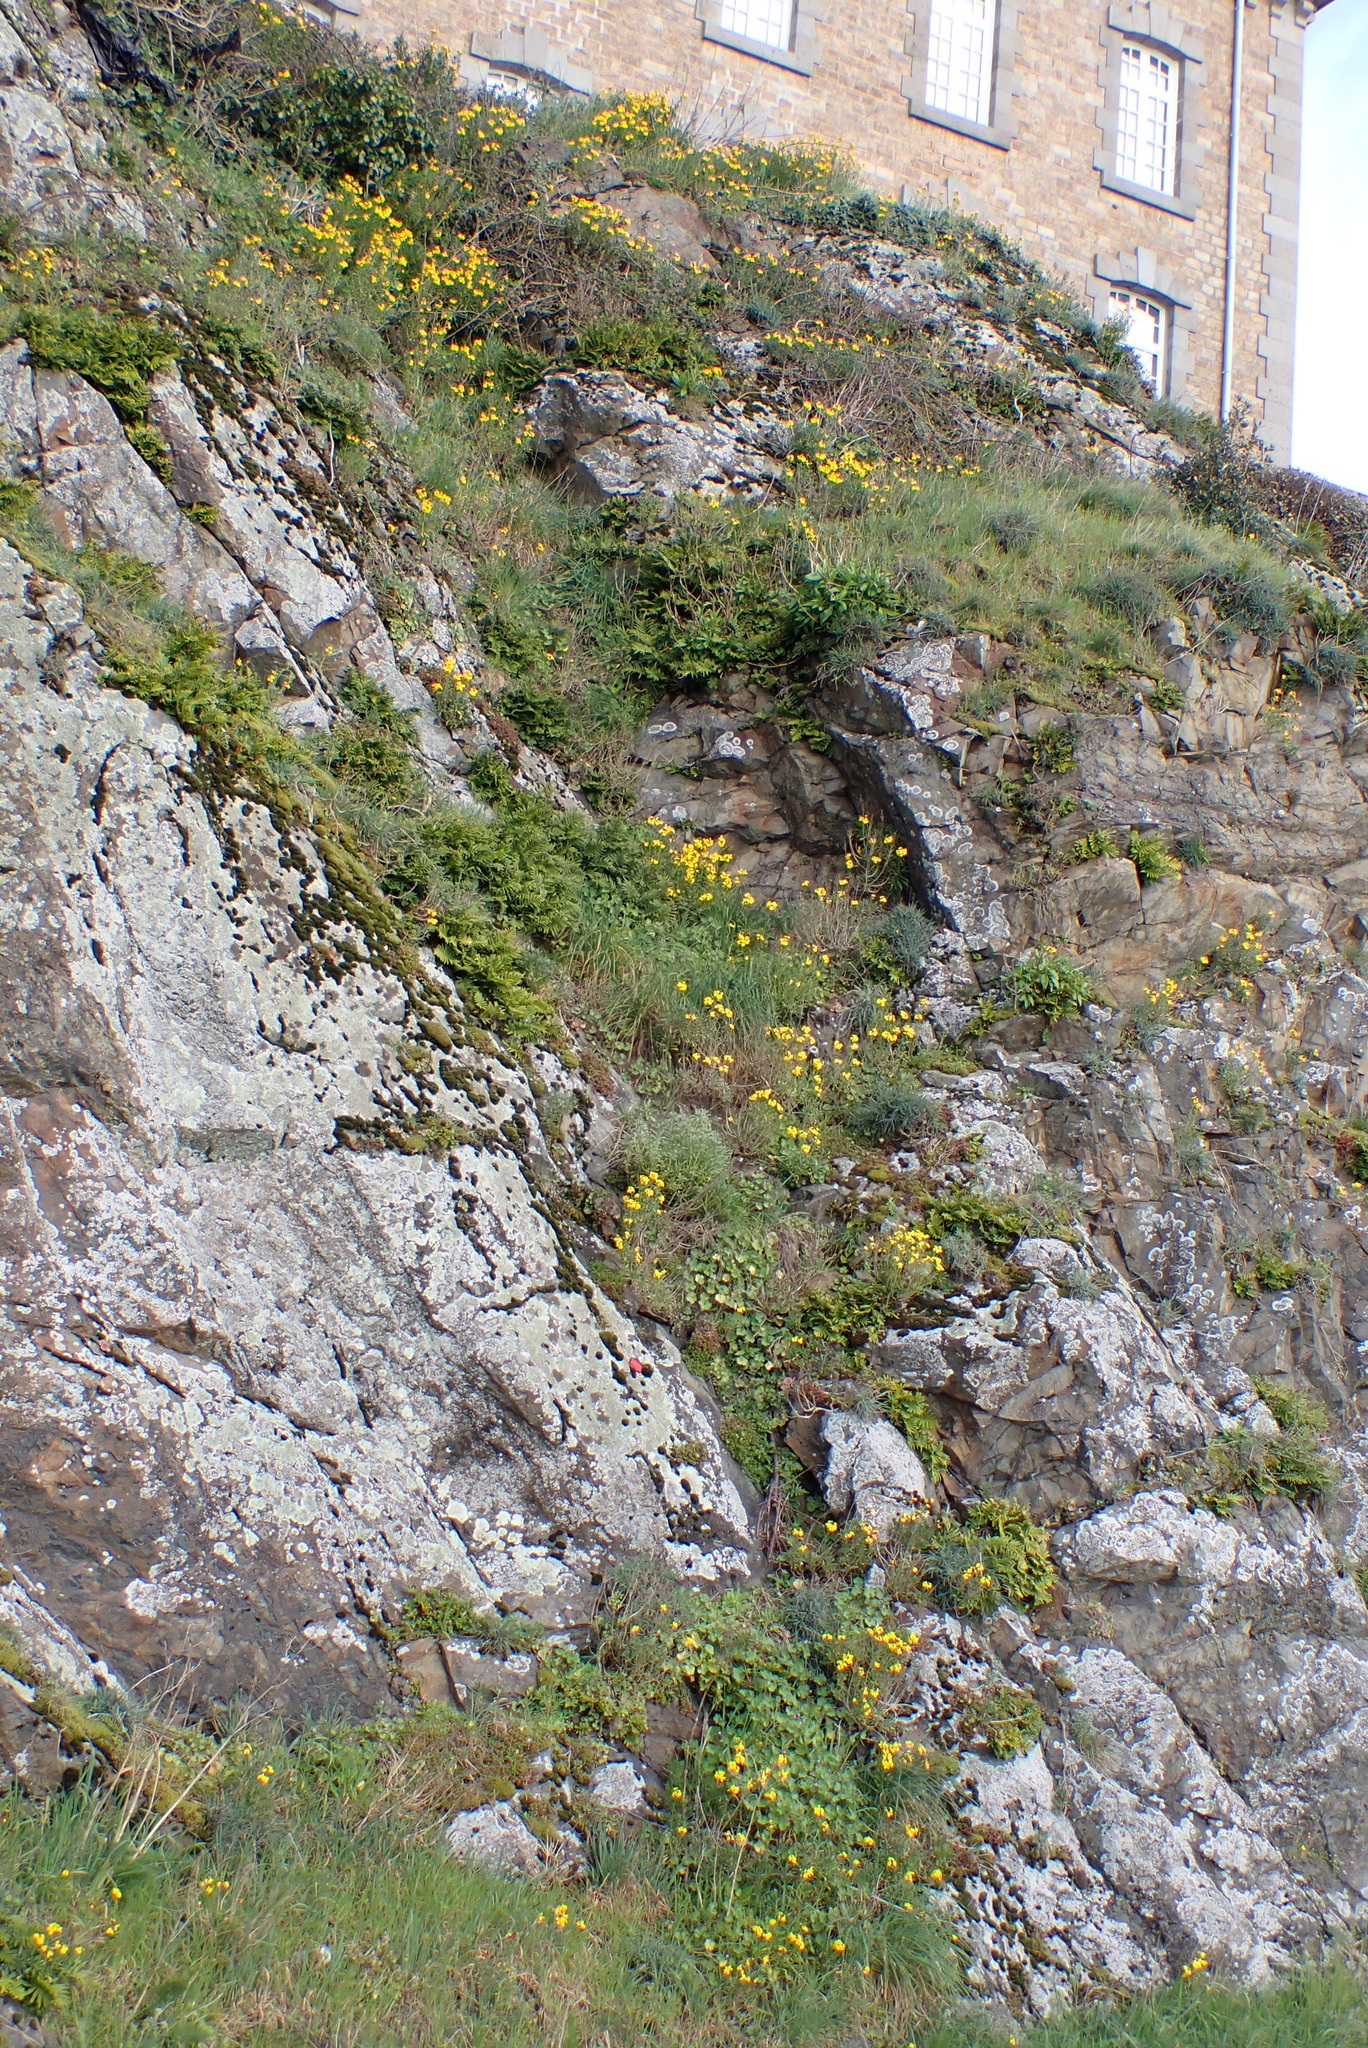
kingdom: Plantae
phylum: Tracheophyta
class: Magnoliopsida
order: Brassicales
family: Brassicaceae
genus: Erysimum
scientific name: Erysimum cheiri
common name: Wallflower
